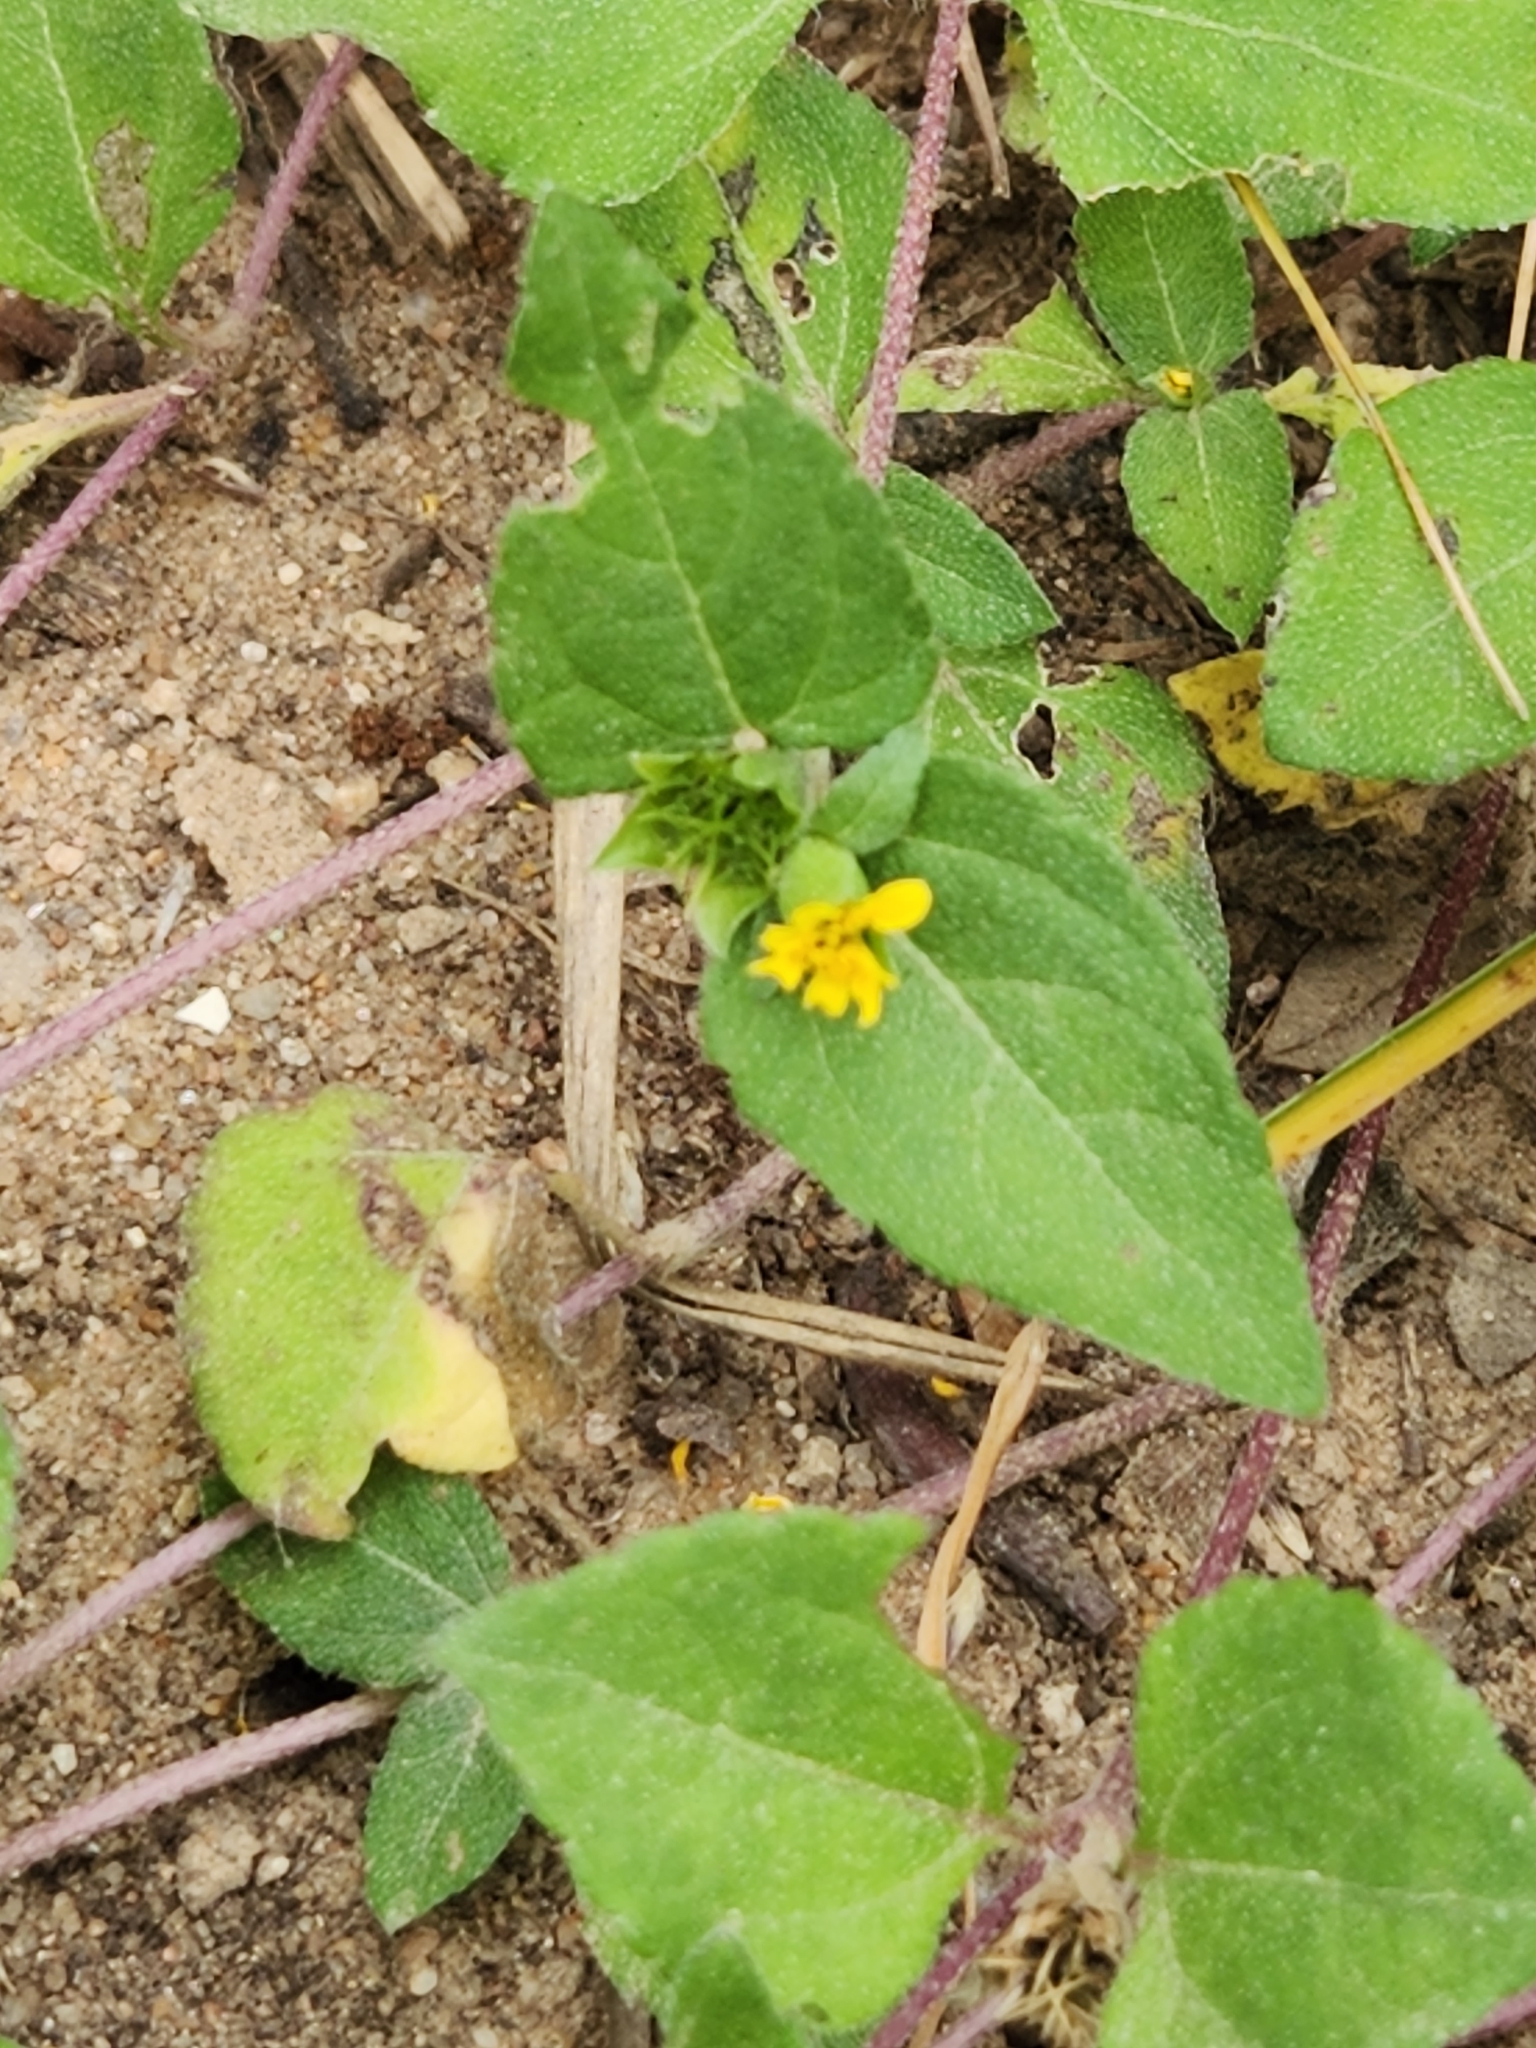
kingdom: Plantae
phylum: Tracheophyta
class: Magnoliopsida
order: Asterales
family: Asteraceae
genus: Calyptocarpus
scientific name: Calyptocarpus vialis
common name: Straggler daisy
